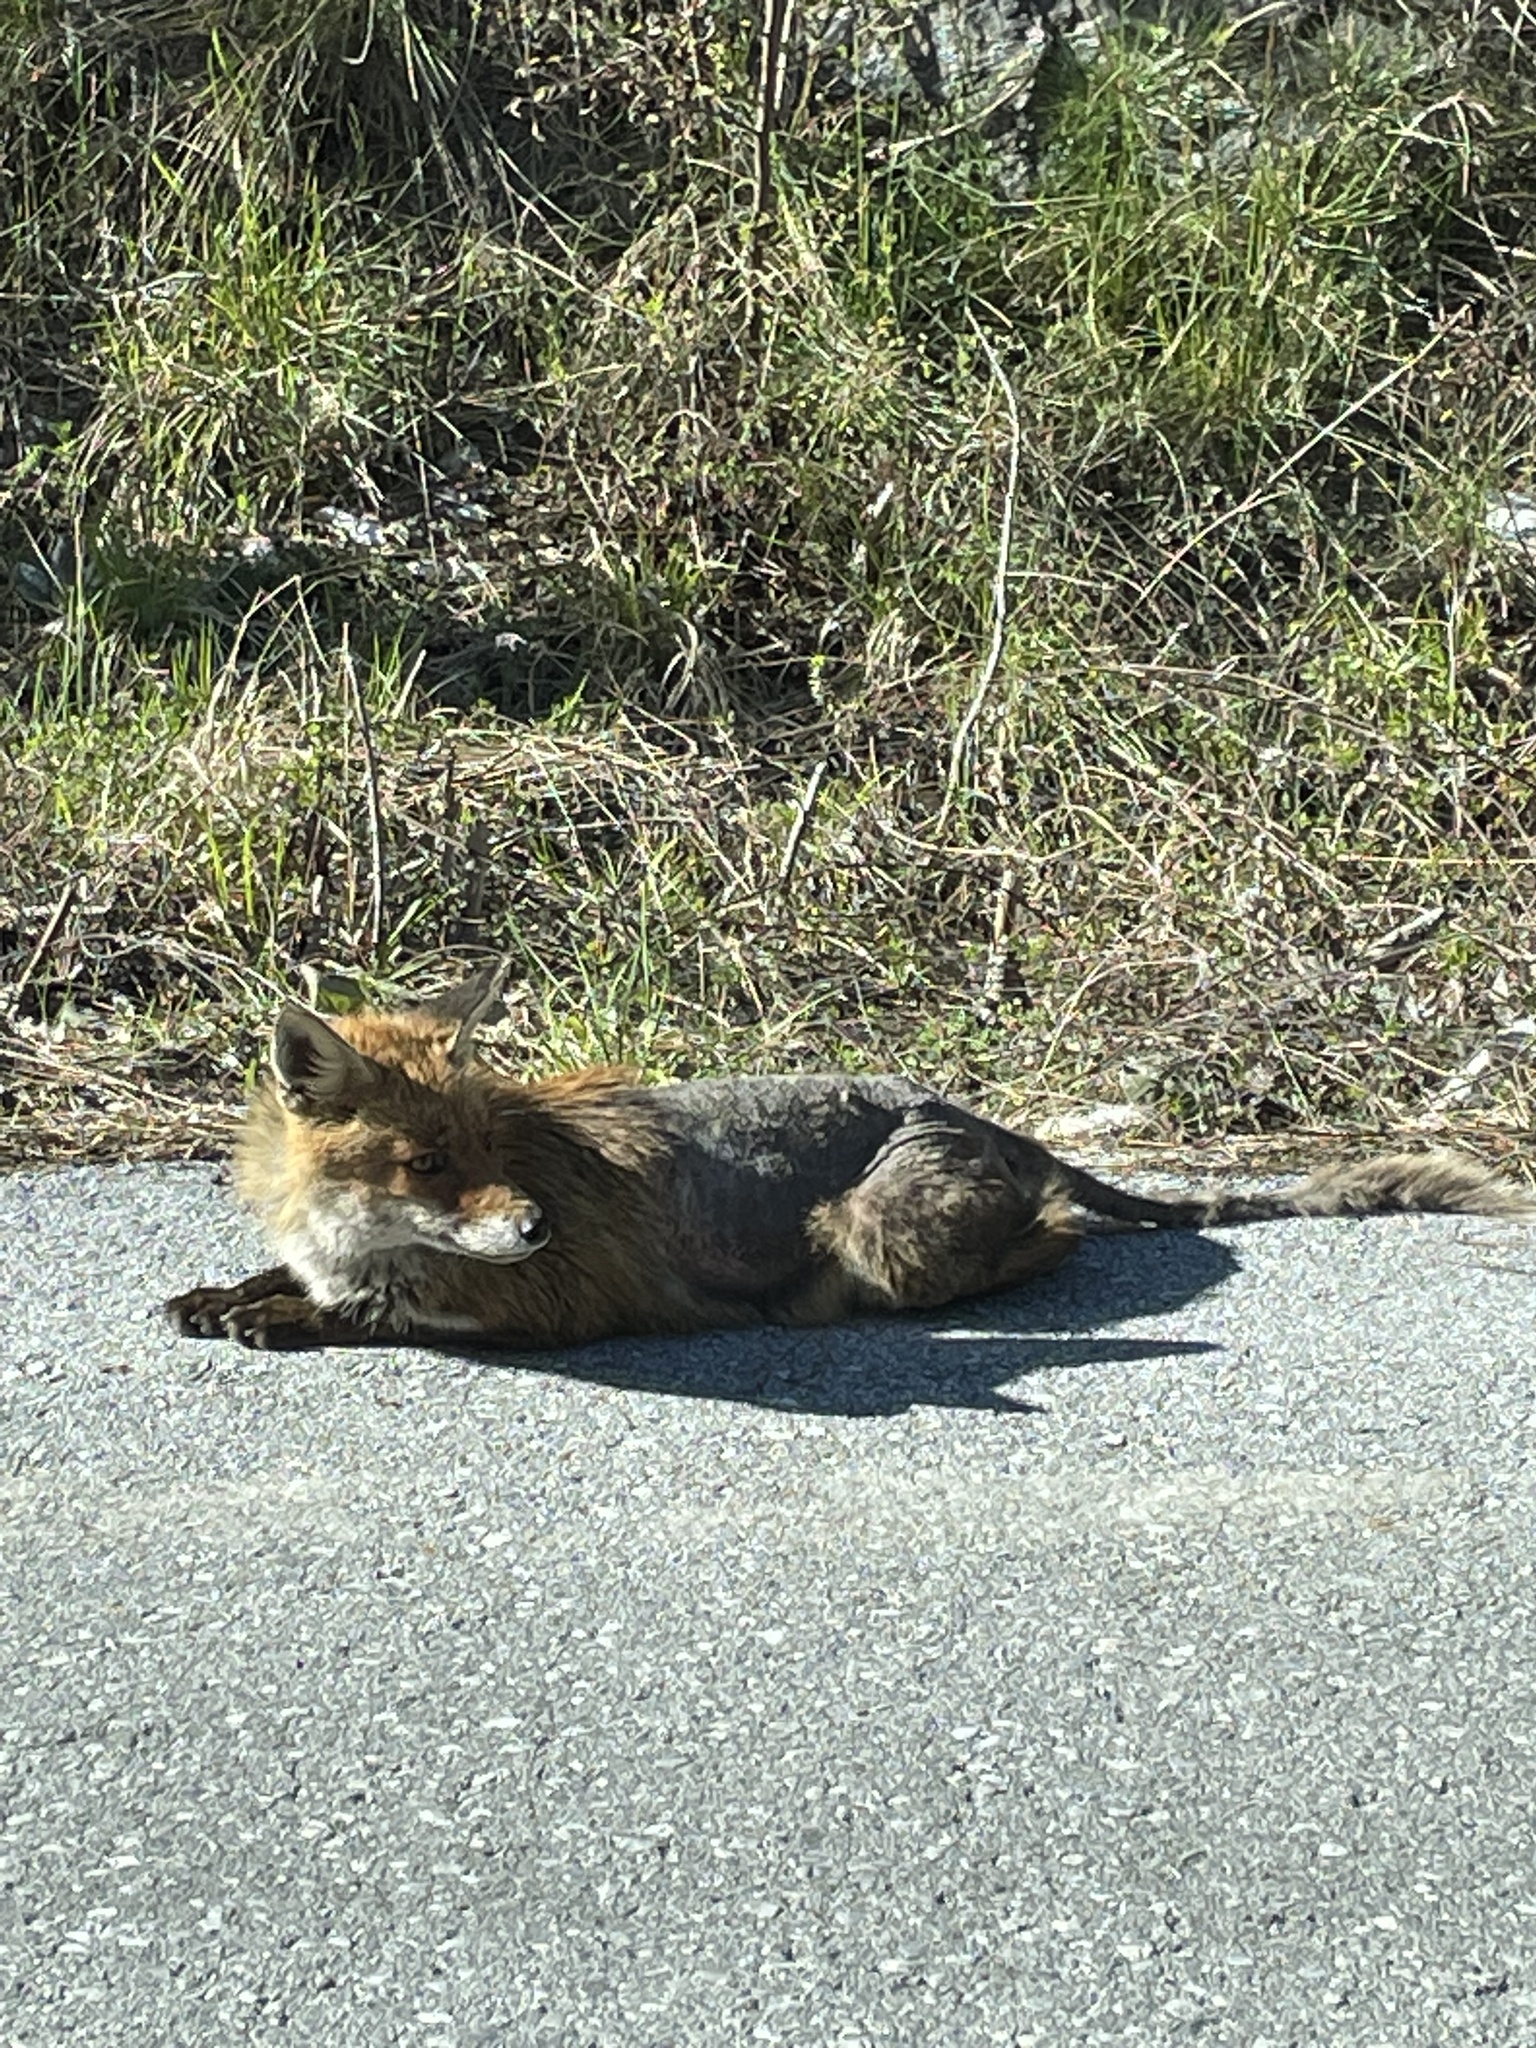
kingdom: Animalia
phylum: Chordata
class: Mammalia
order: Carnivora
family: Canidae
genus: Vulpes
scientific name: Vulpes vulpes
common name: Red fox
